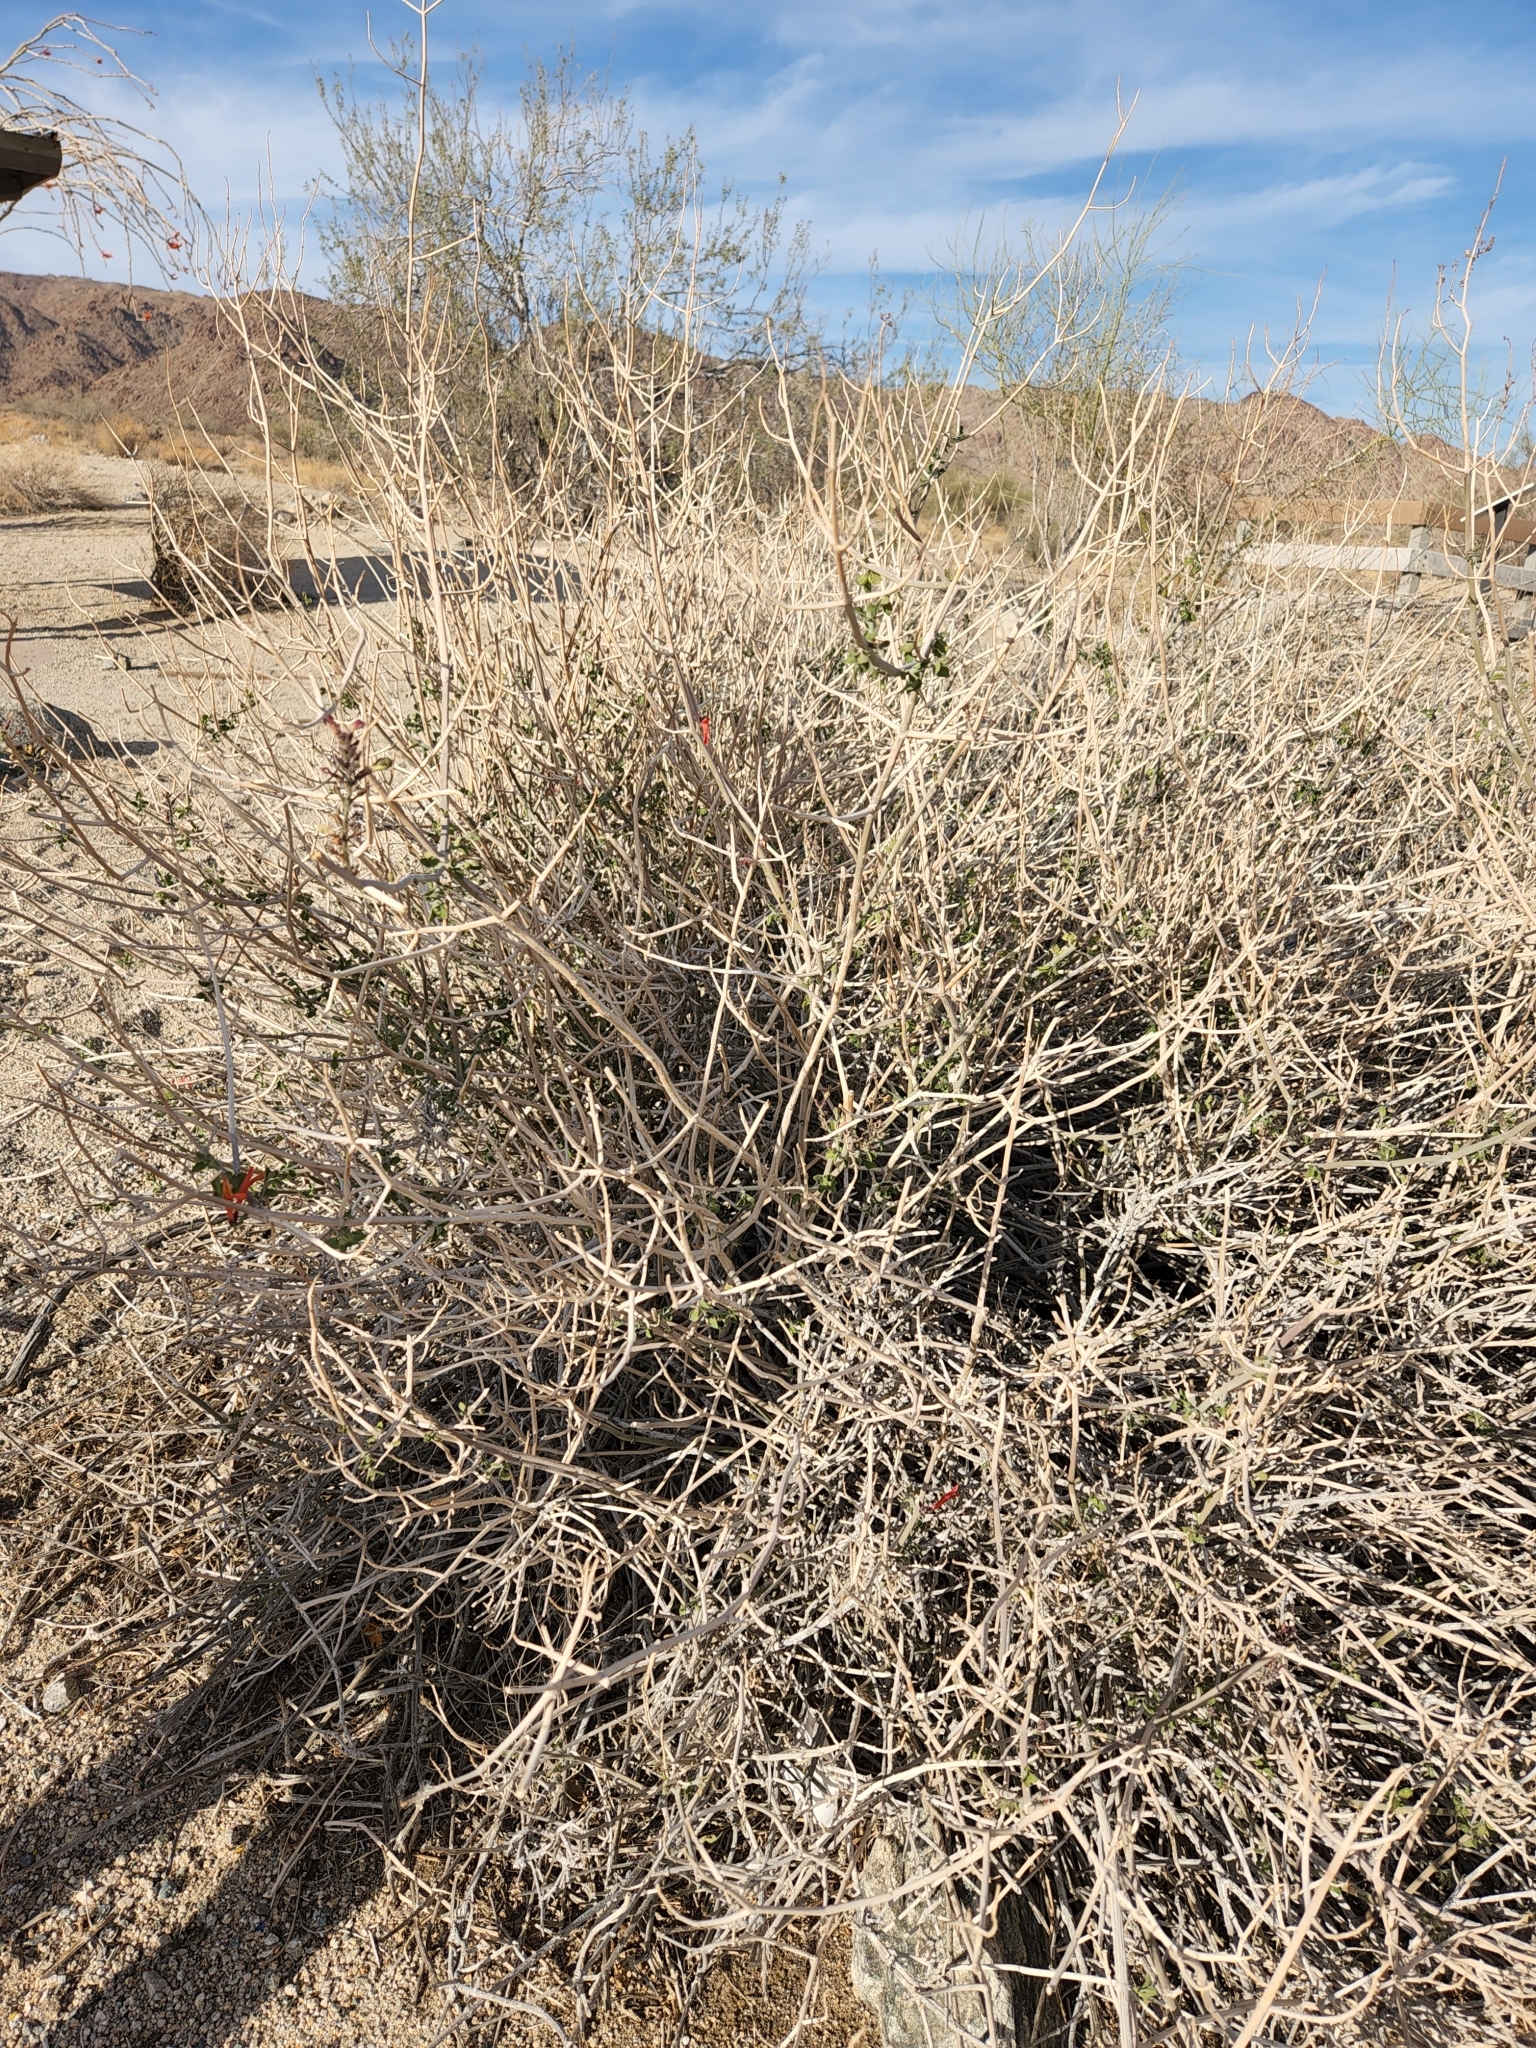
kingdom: Plantae
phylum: Tracheophyta
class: Magnoliopsida
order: Lamiales
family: Acanthaceae
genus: Justicia
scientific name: Justicia californica
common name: Chuparosa-honeysuckle
